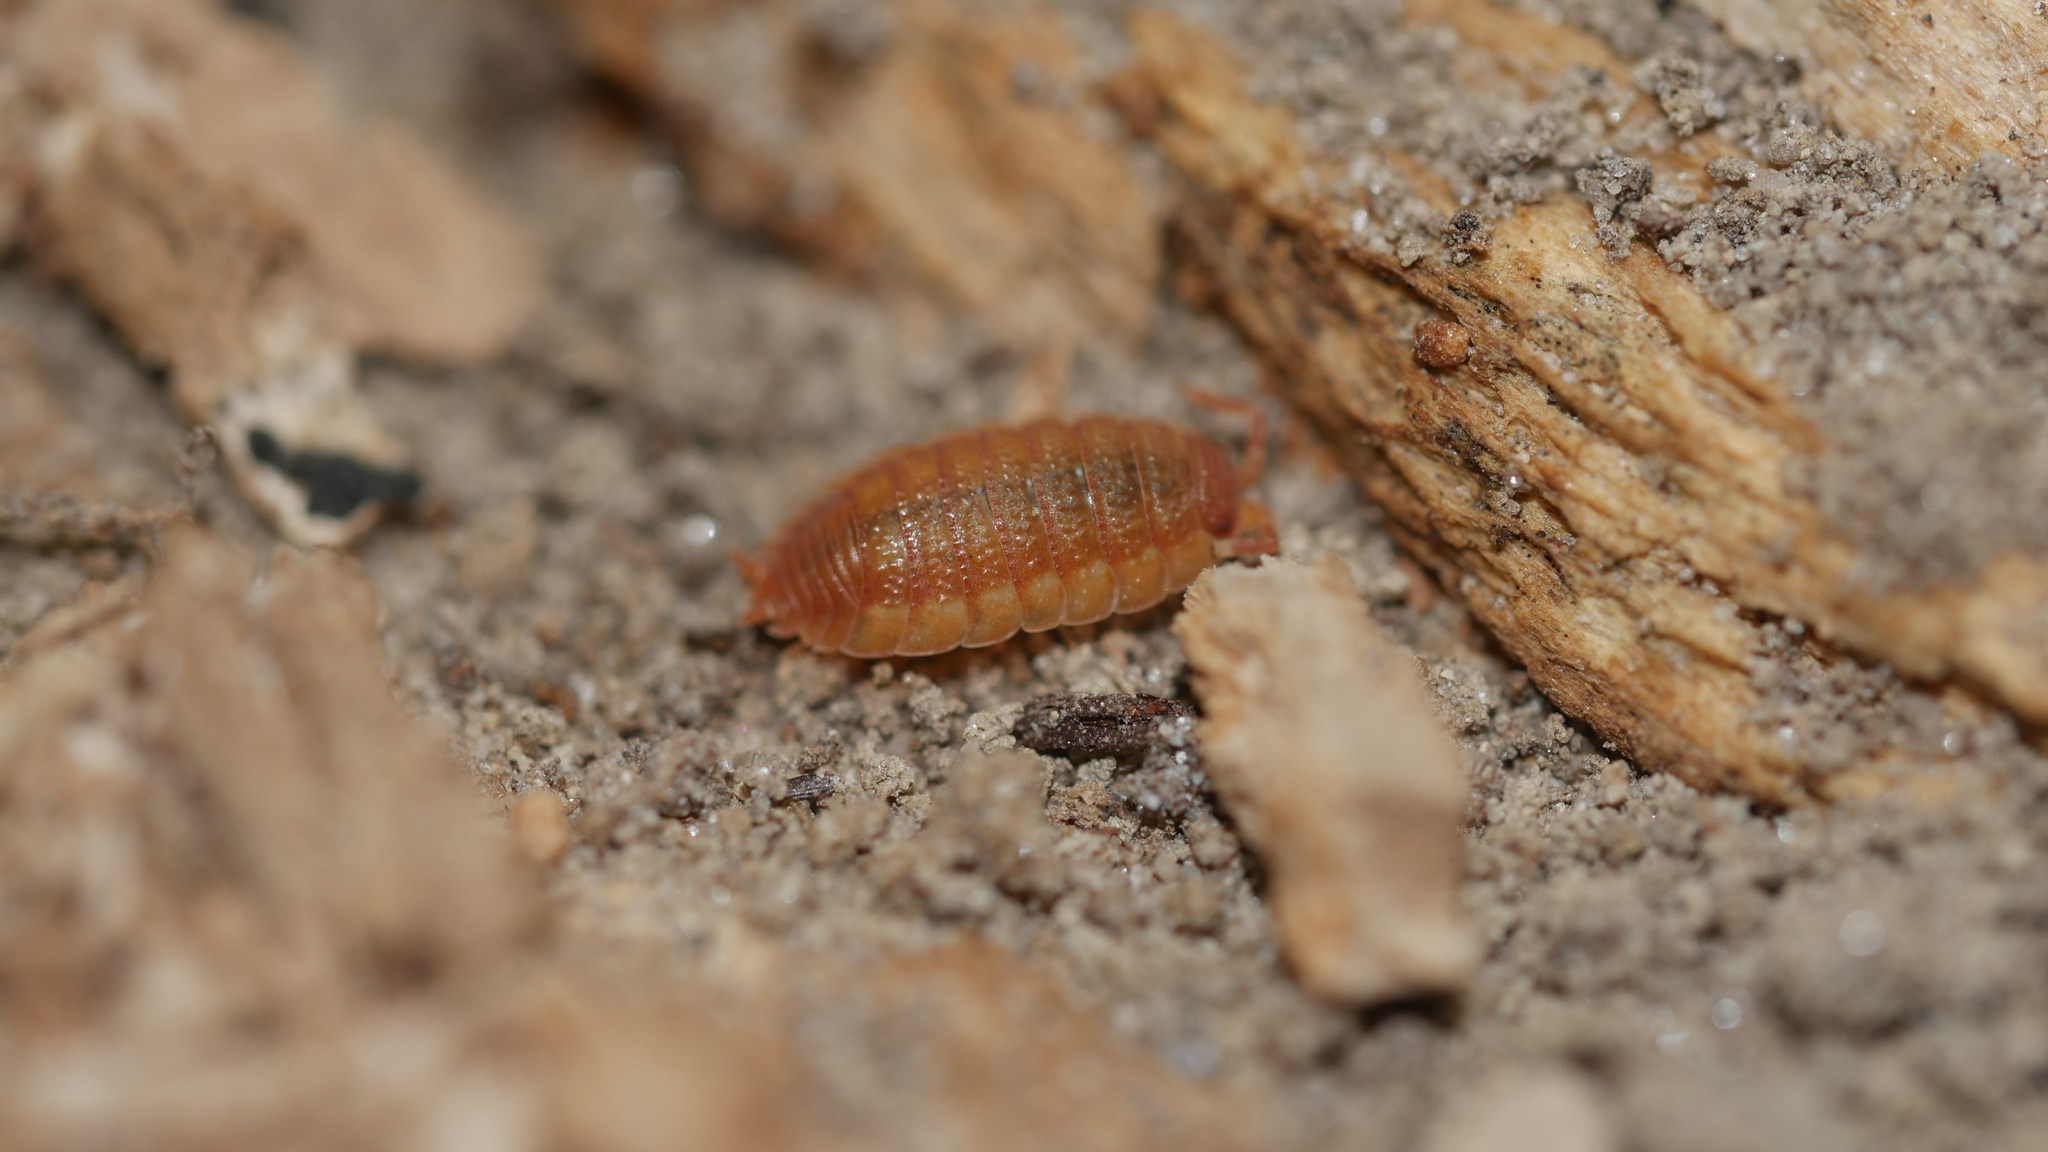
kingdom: Animalia
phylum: Arthropoda
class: Malacostraca
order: Isopoda
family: Porcellionidae
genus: Porcellio
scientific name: Porcellio scaber
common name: Common rough woodlouse
